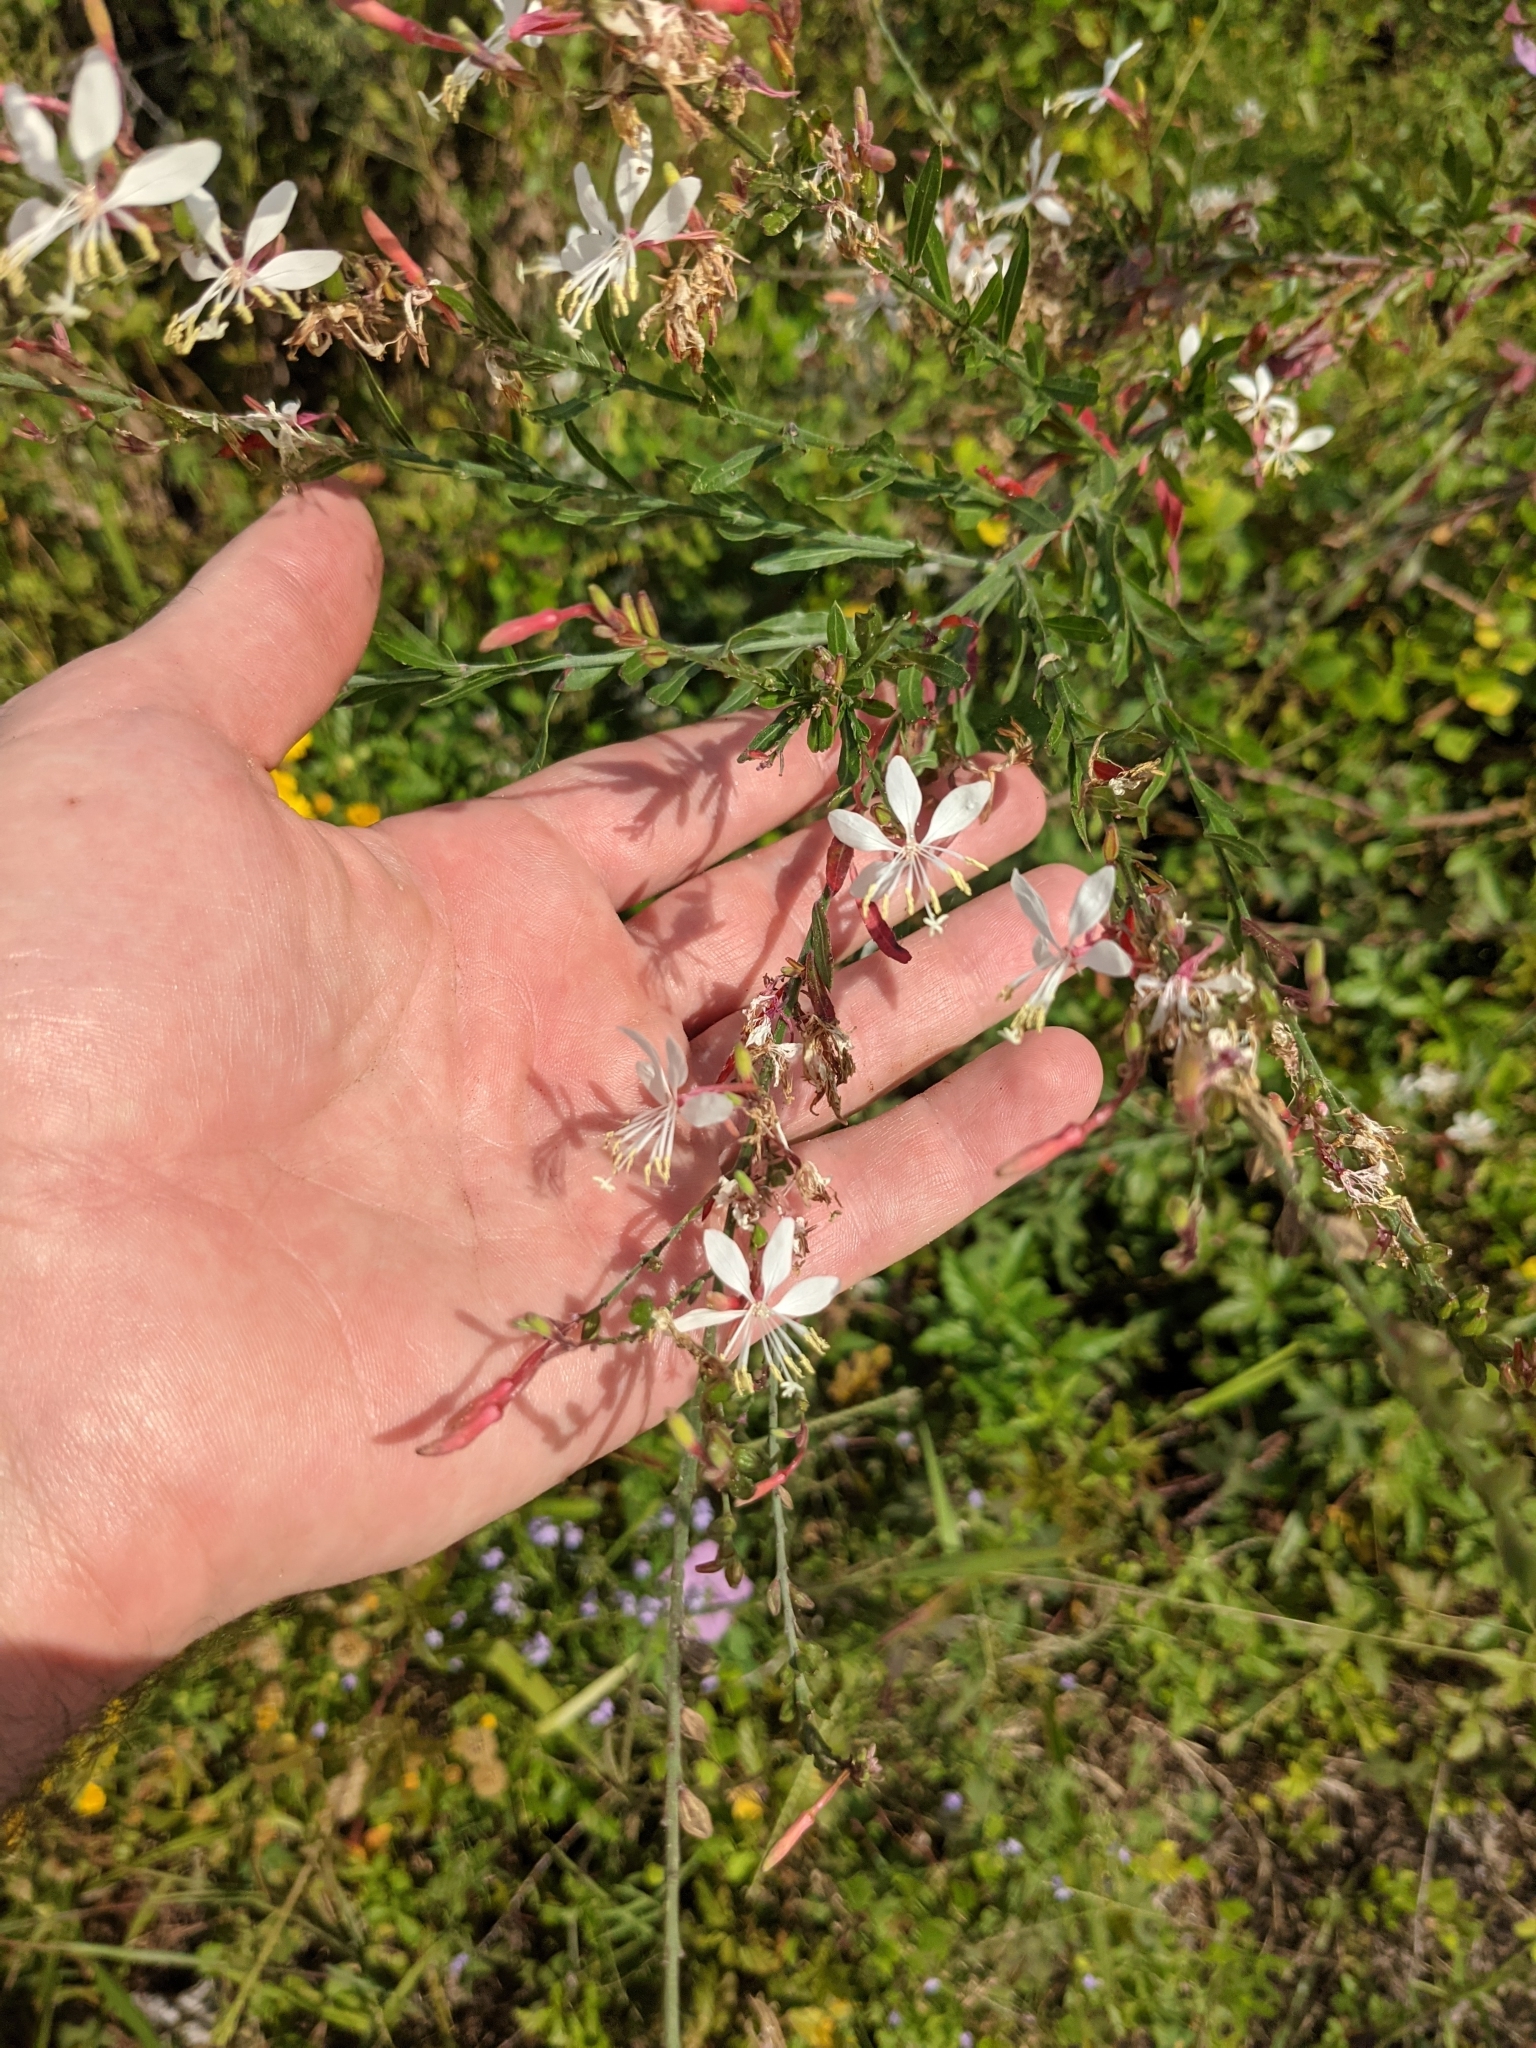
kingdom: Plantae
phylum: Tracheophyta
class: Magnoliopsida
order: Myrtales
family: Onagraceae
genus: Oenothera
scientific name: Oenothera lindheimeri
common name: Lindheimer's beeblossom
